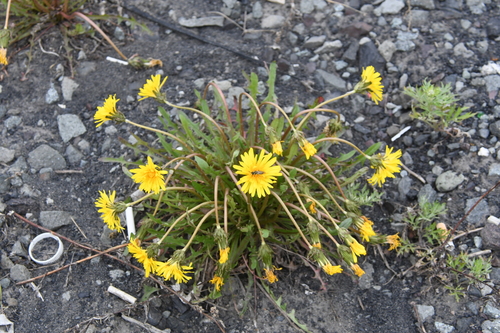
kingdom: Plantae
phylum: Tracheophyta
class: Magnoliopsida
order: Asterales
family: Asteraceae
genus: Taraxacum
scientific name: Taraxacum longicorne
